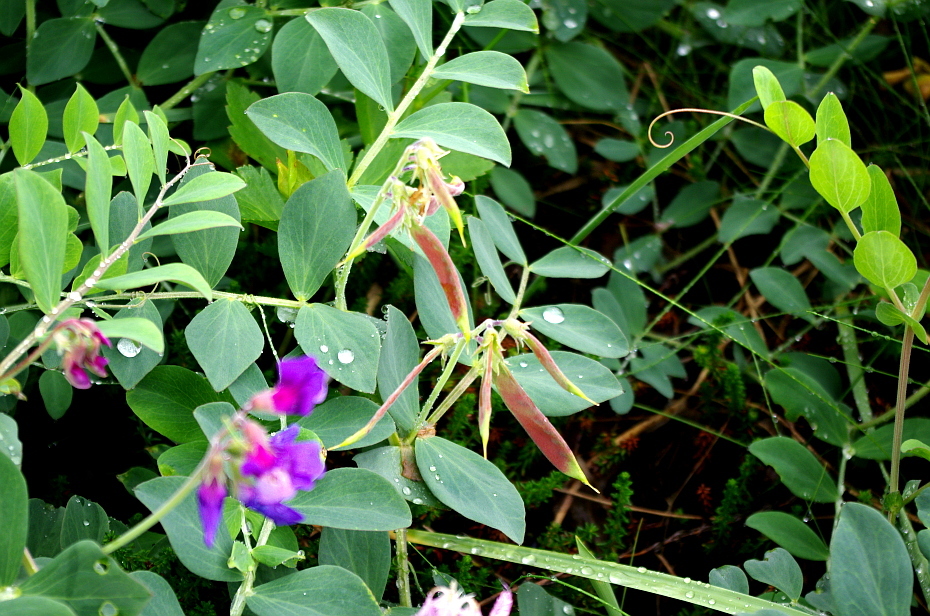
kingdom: Plantae
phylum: Tracheophyta
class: Magnoliopsida
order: Fabales
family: Fabaceae
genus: Lathyrus
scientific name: Lathyrus japonicus
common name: Sea pea
